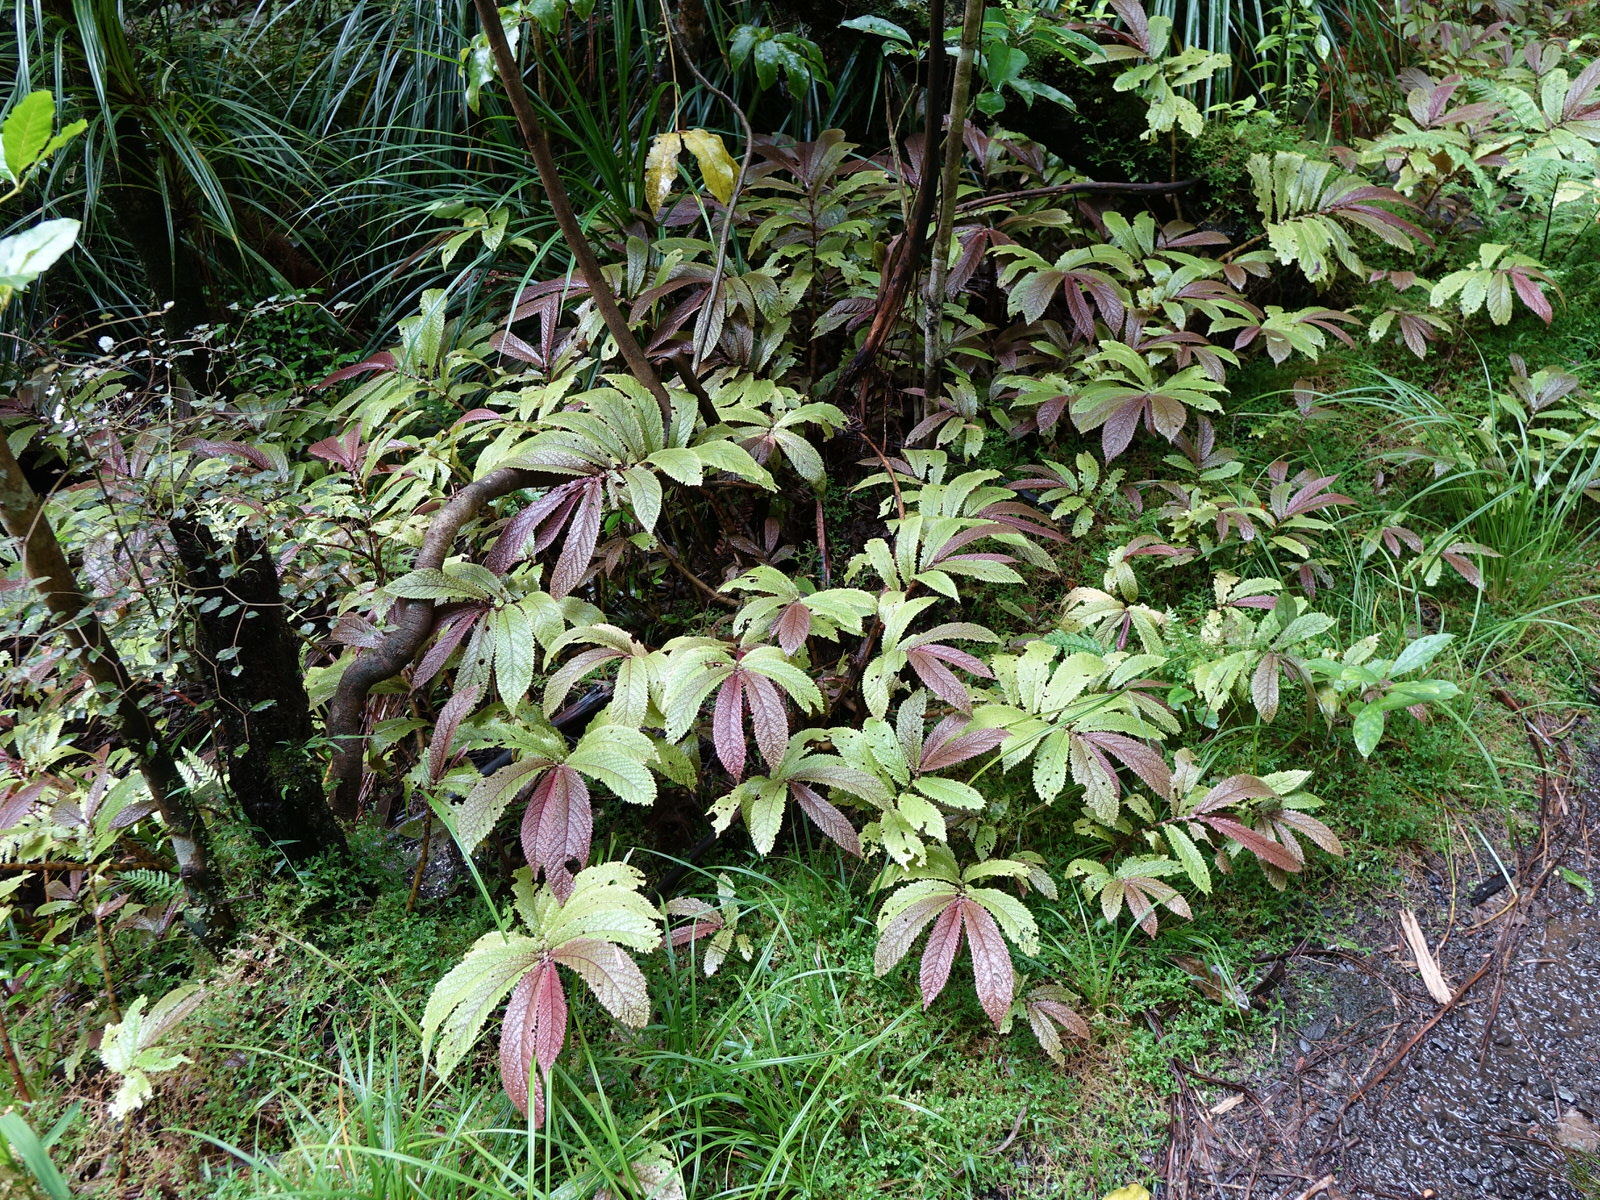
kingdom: Plantae
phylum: Tracheophyta
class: Magnoliopsida
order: Rosales
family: Urticaceae
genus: Elatostema
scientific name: Elatostema rugosum
